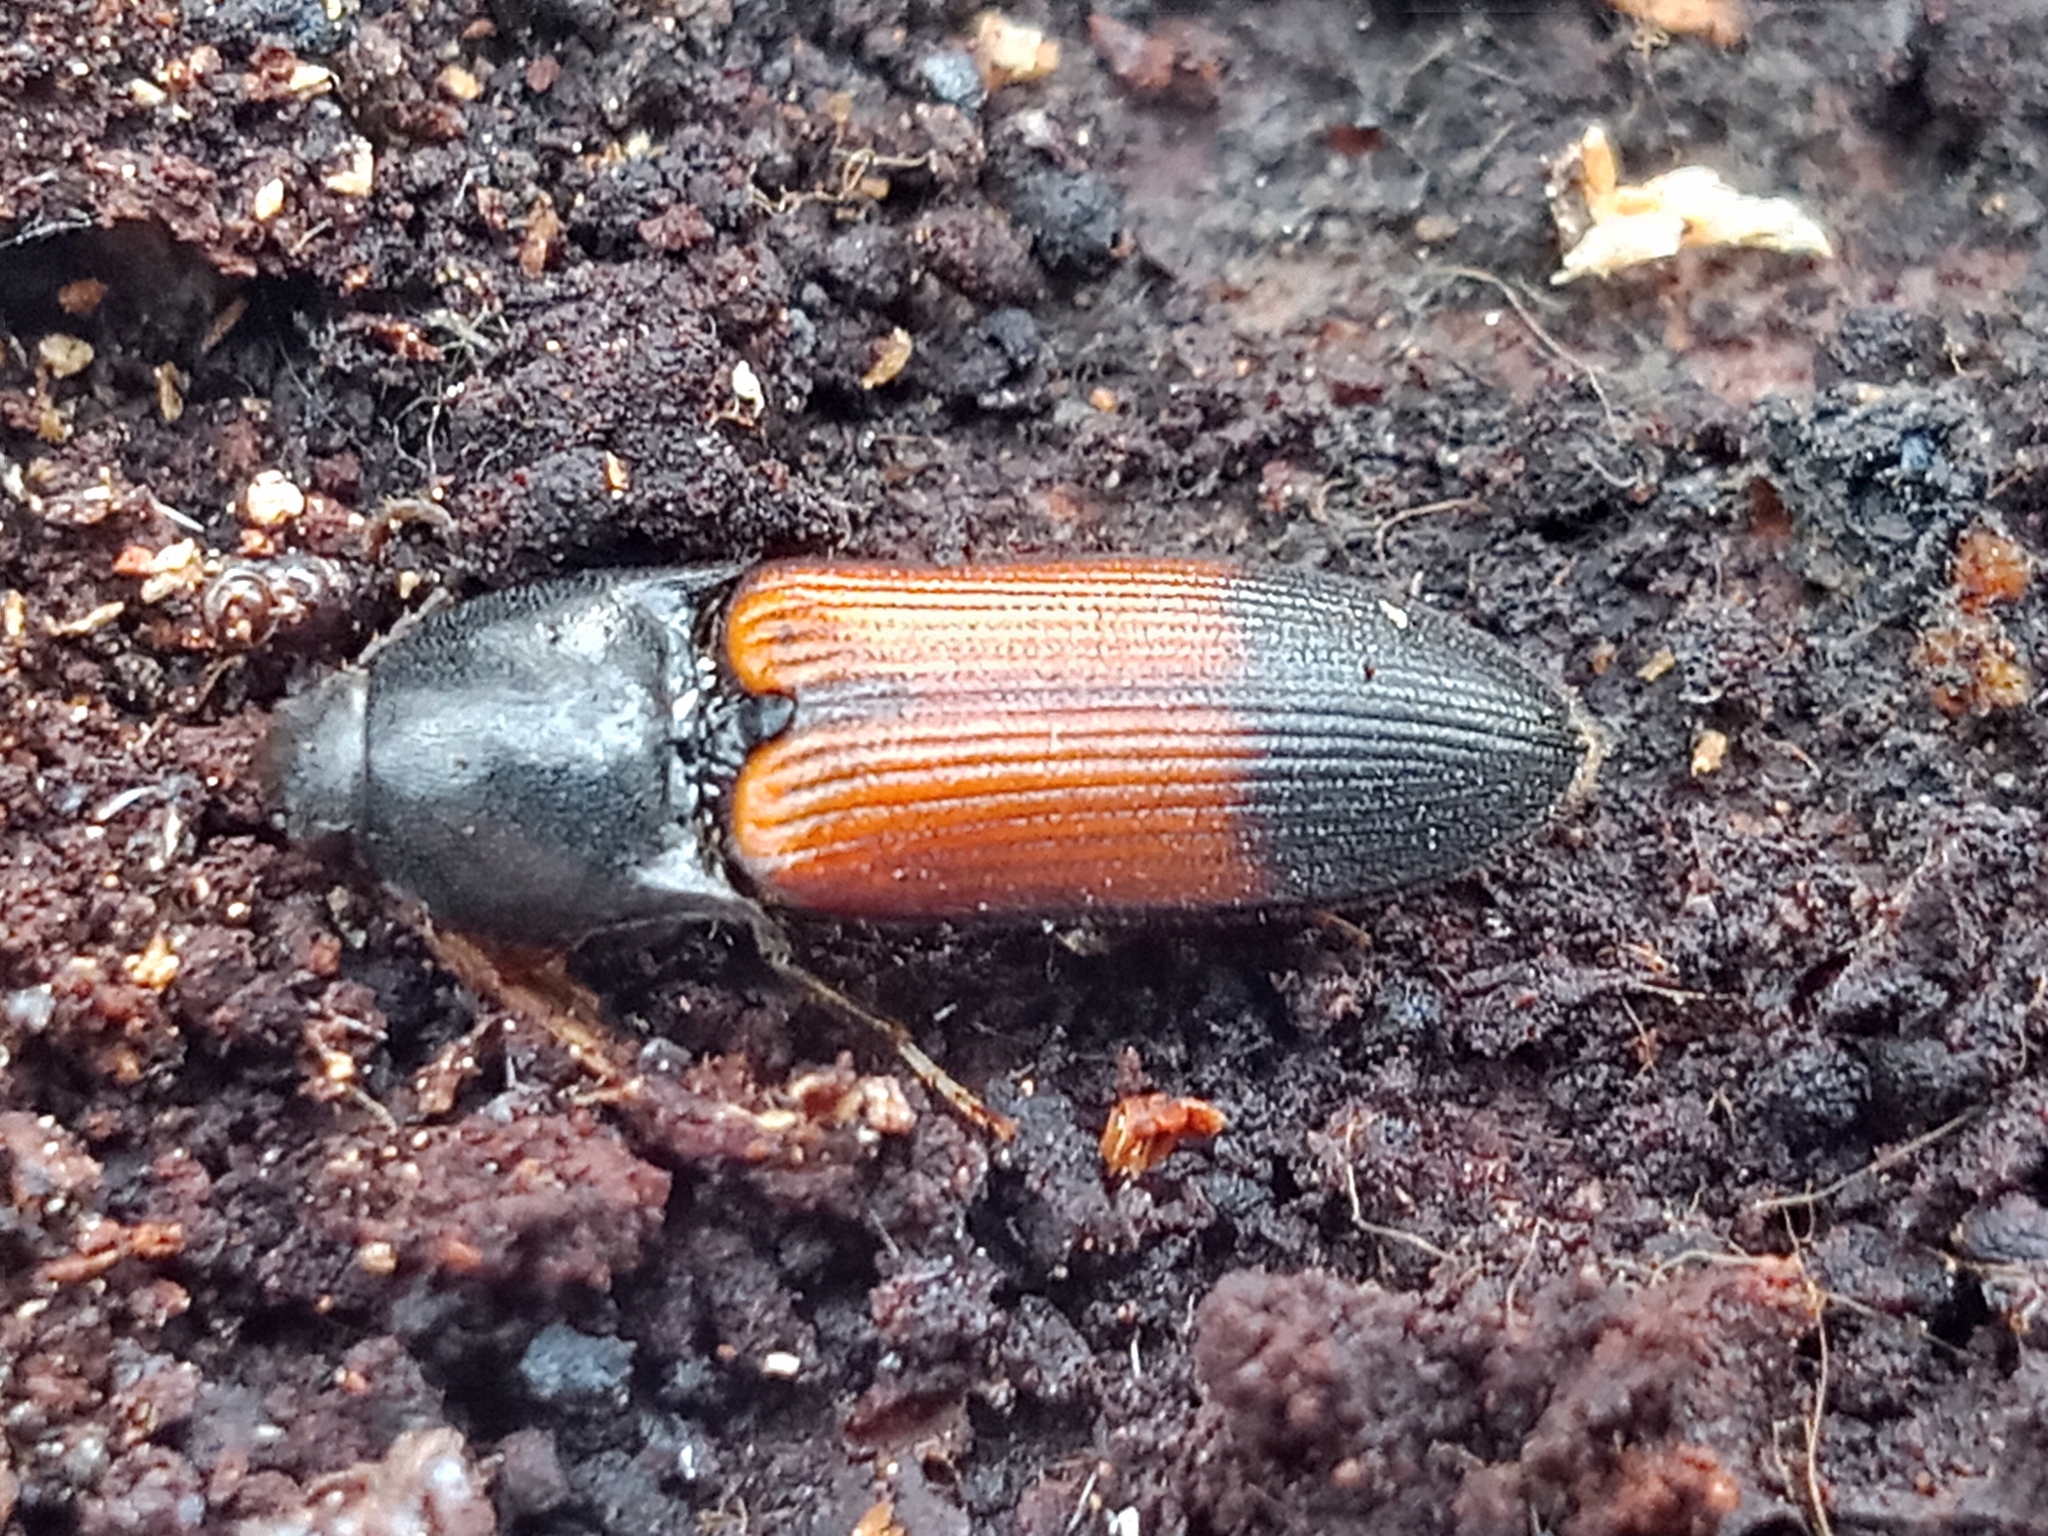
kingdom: Animalia
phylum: Arthropoda
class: Insecta
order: Coleoptera
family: Elateridae
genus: Ampedus
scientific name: Ampedus balteatus
